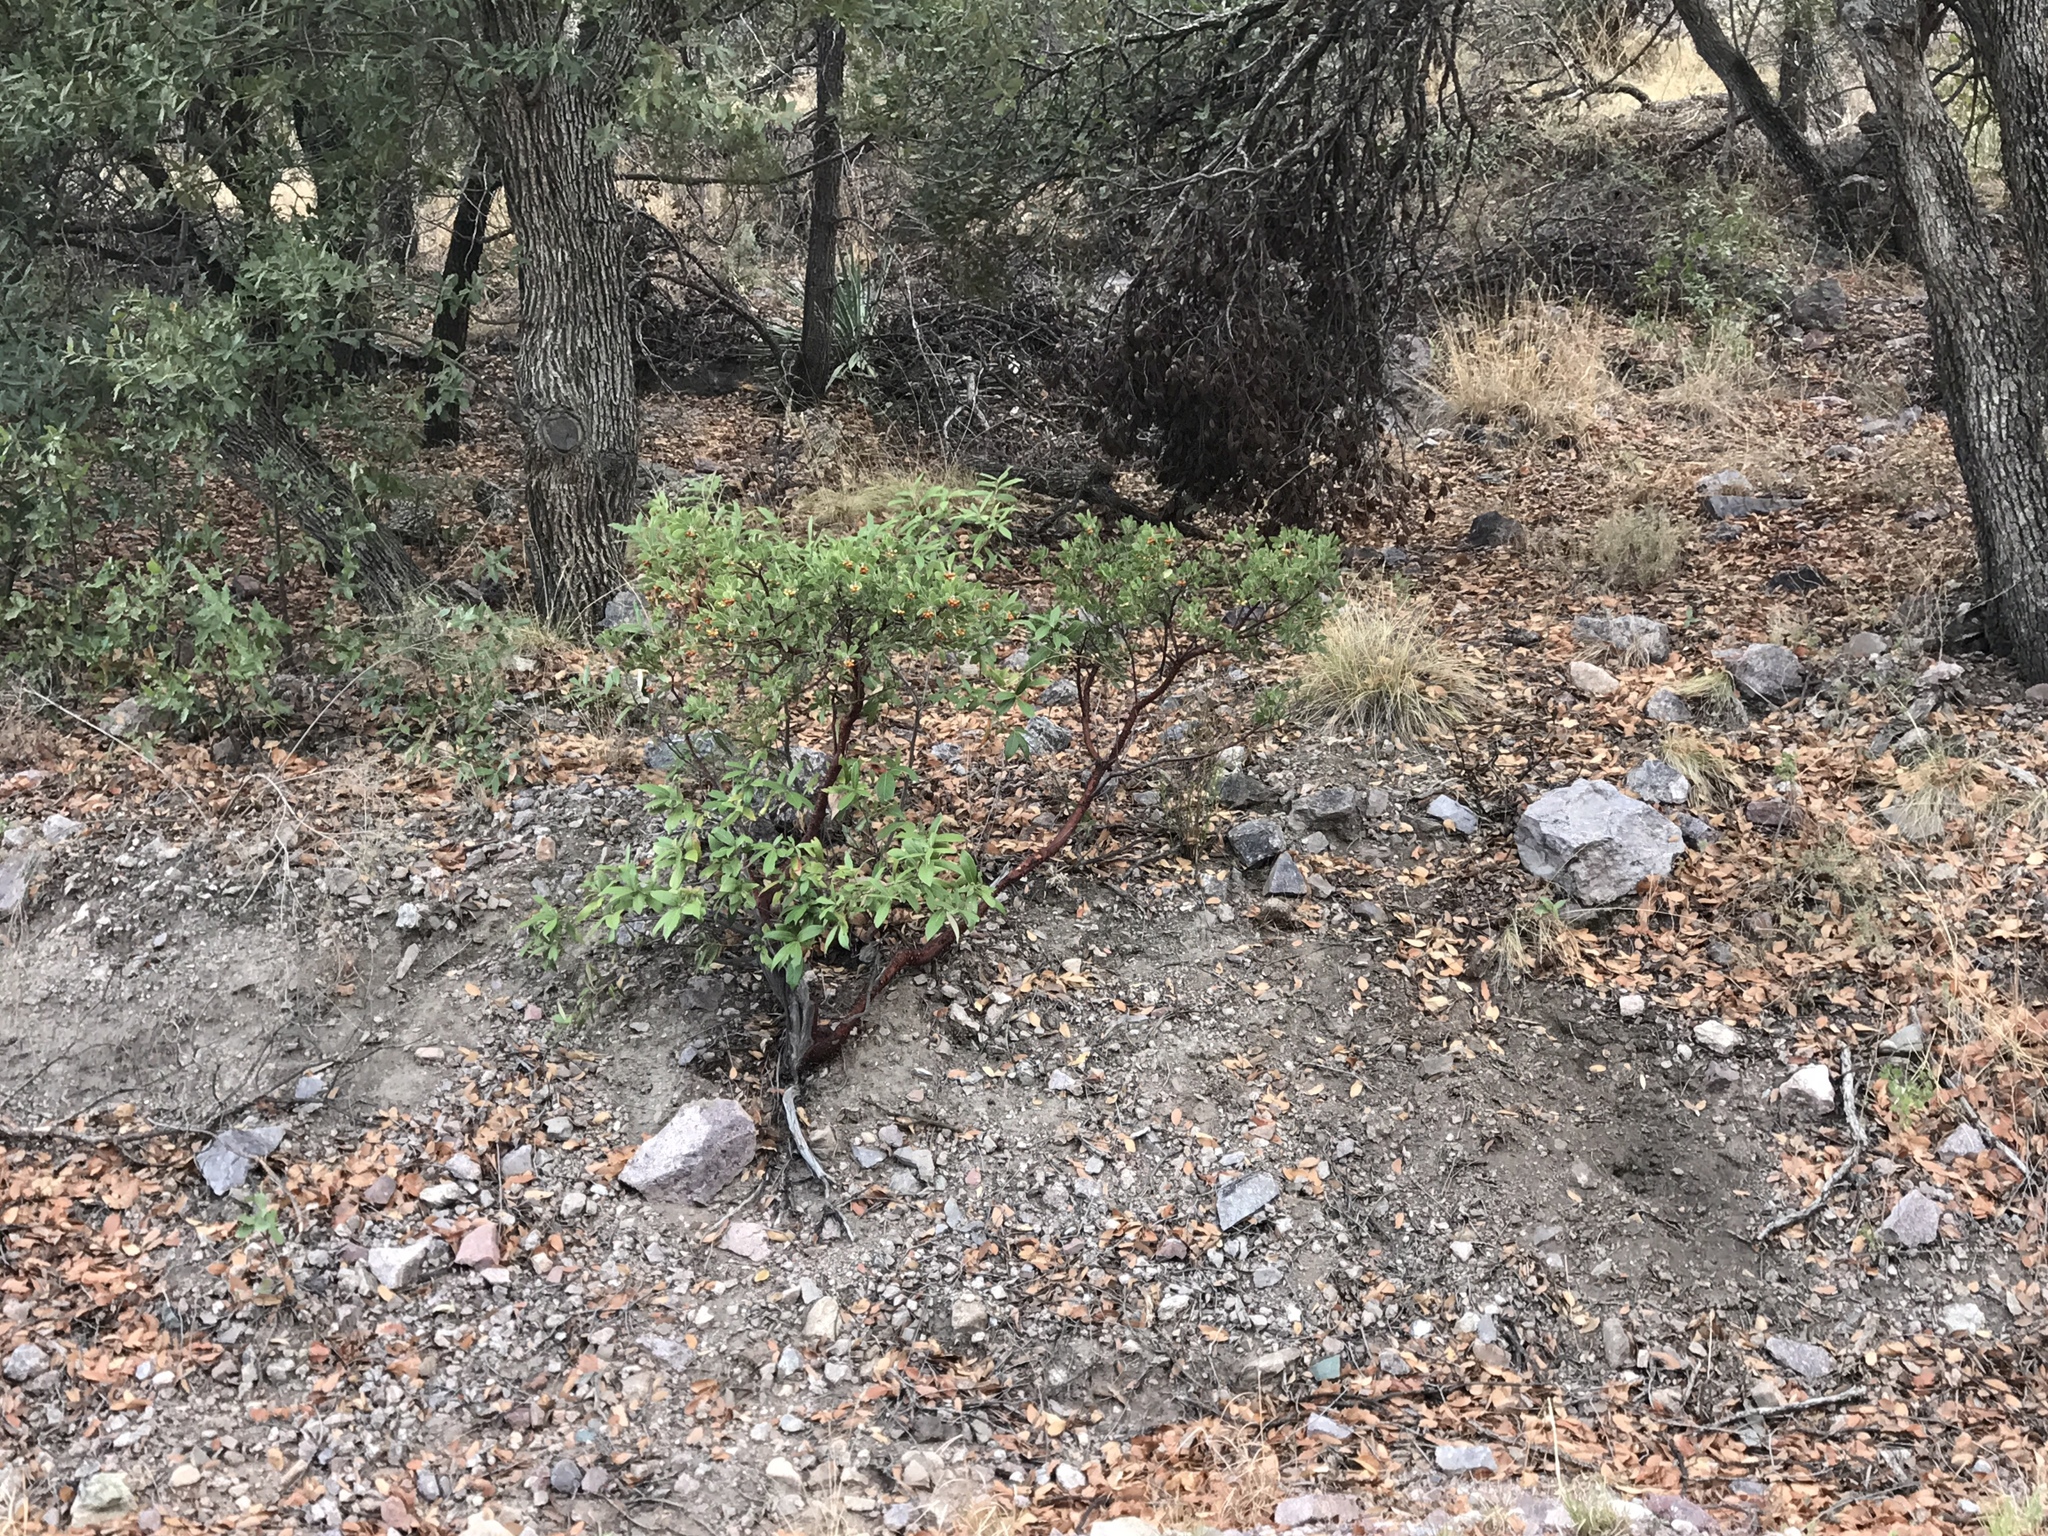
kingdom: Plantae
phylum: Tracheophyta
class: Magnoliopsida
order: Ericales
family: Ericaceae
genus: Arctostaphylos
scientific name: Arctostaphylos pungens
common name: Mexican manzanita
